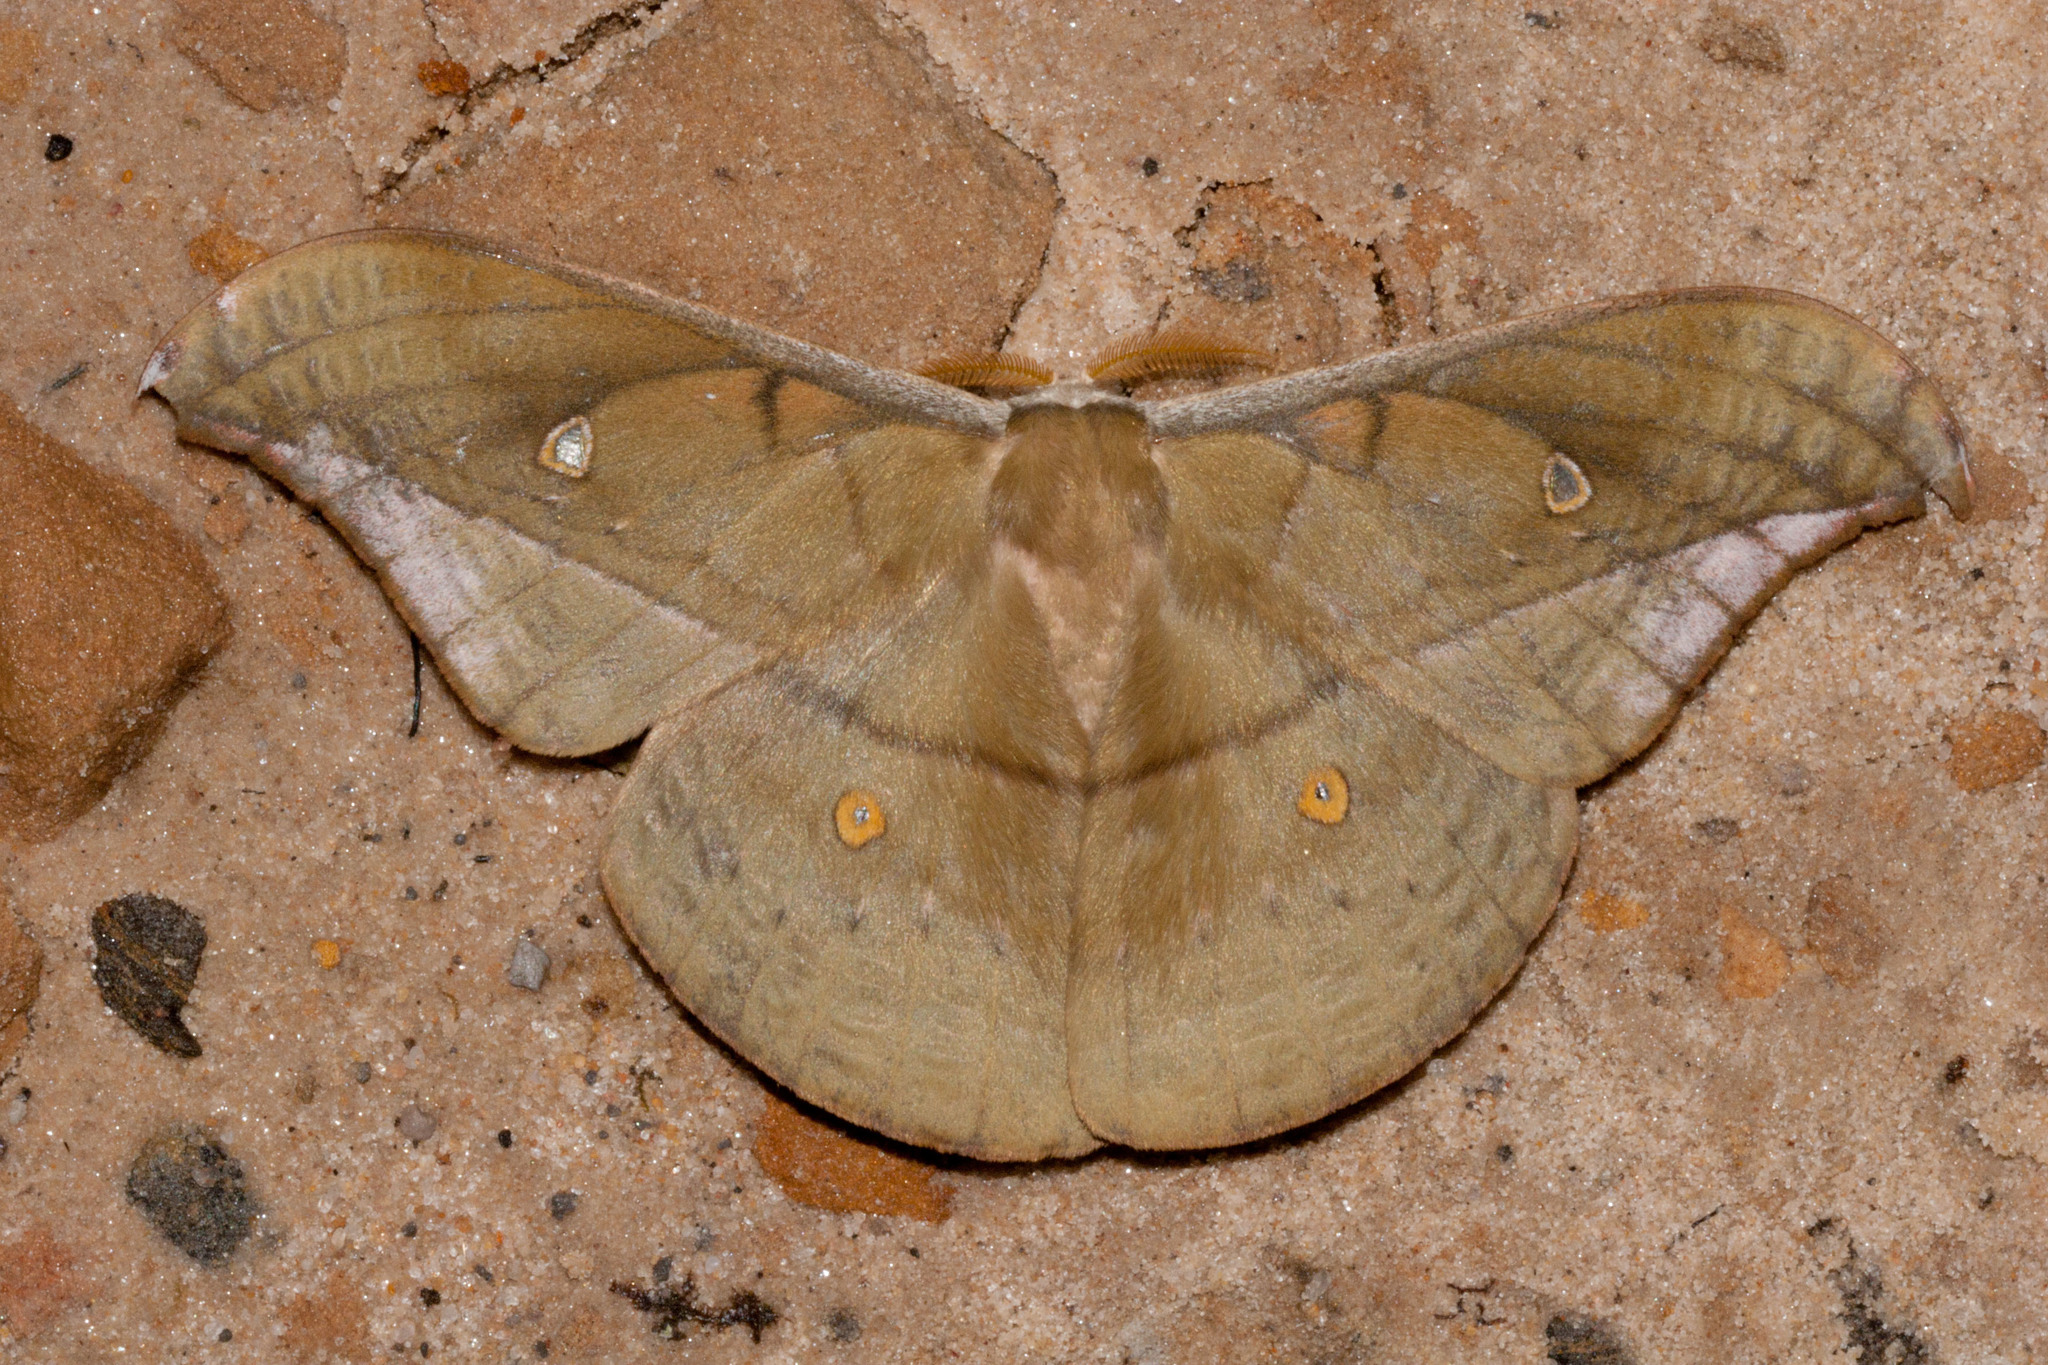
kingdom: Animalia
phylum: Arthropoda
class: Insecta
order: Lepidoptera
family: Saturniidae
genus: Copaxa
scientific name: Copaxa decrescens
